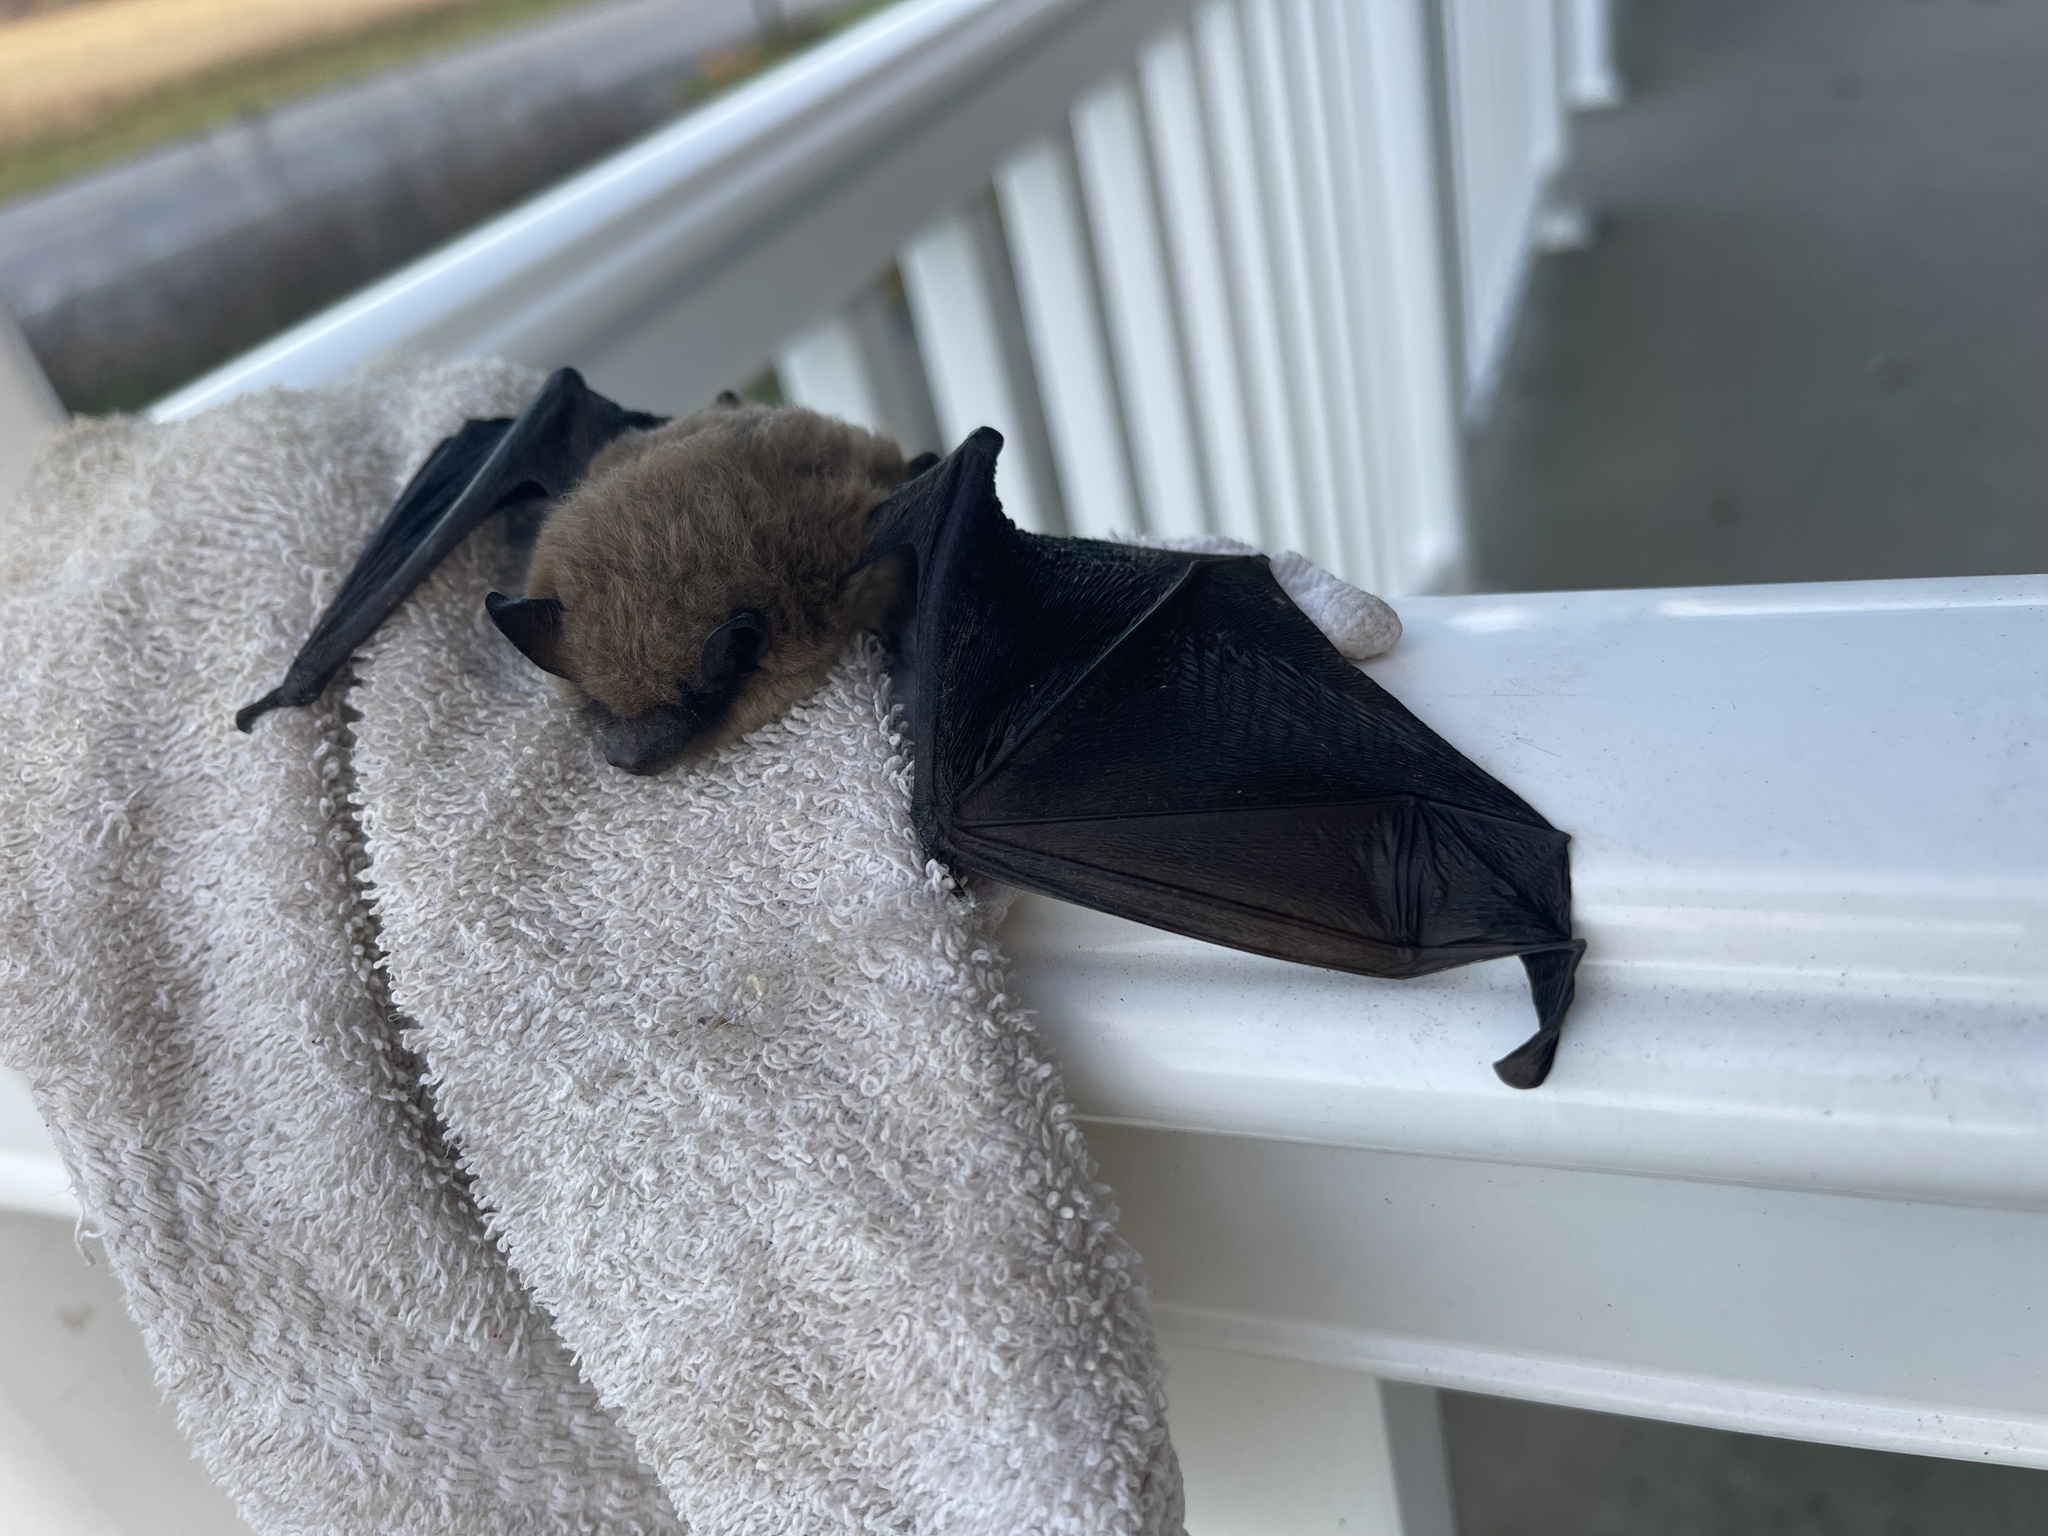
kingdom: Animalia
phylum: Chordata
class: Mammalia
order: Chiroptera
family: Vespertilionidae
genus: Eptesicus
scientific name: Eptesicus fuscus
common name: Big brown bat
